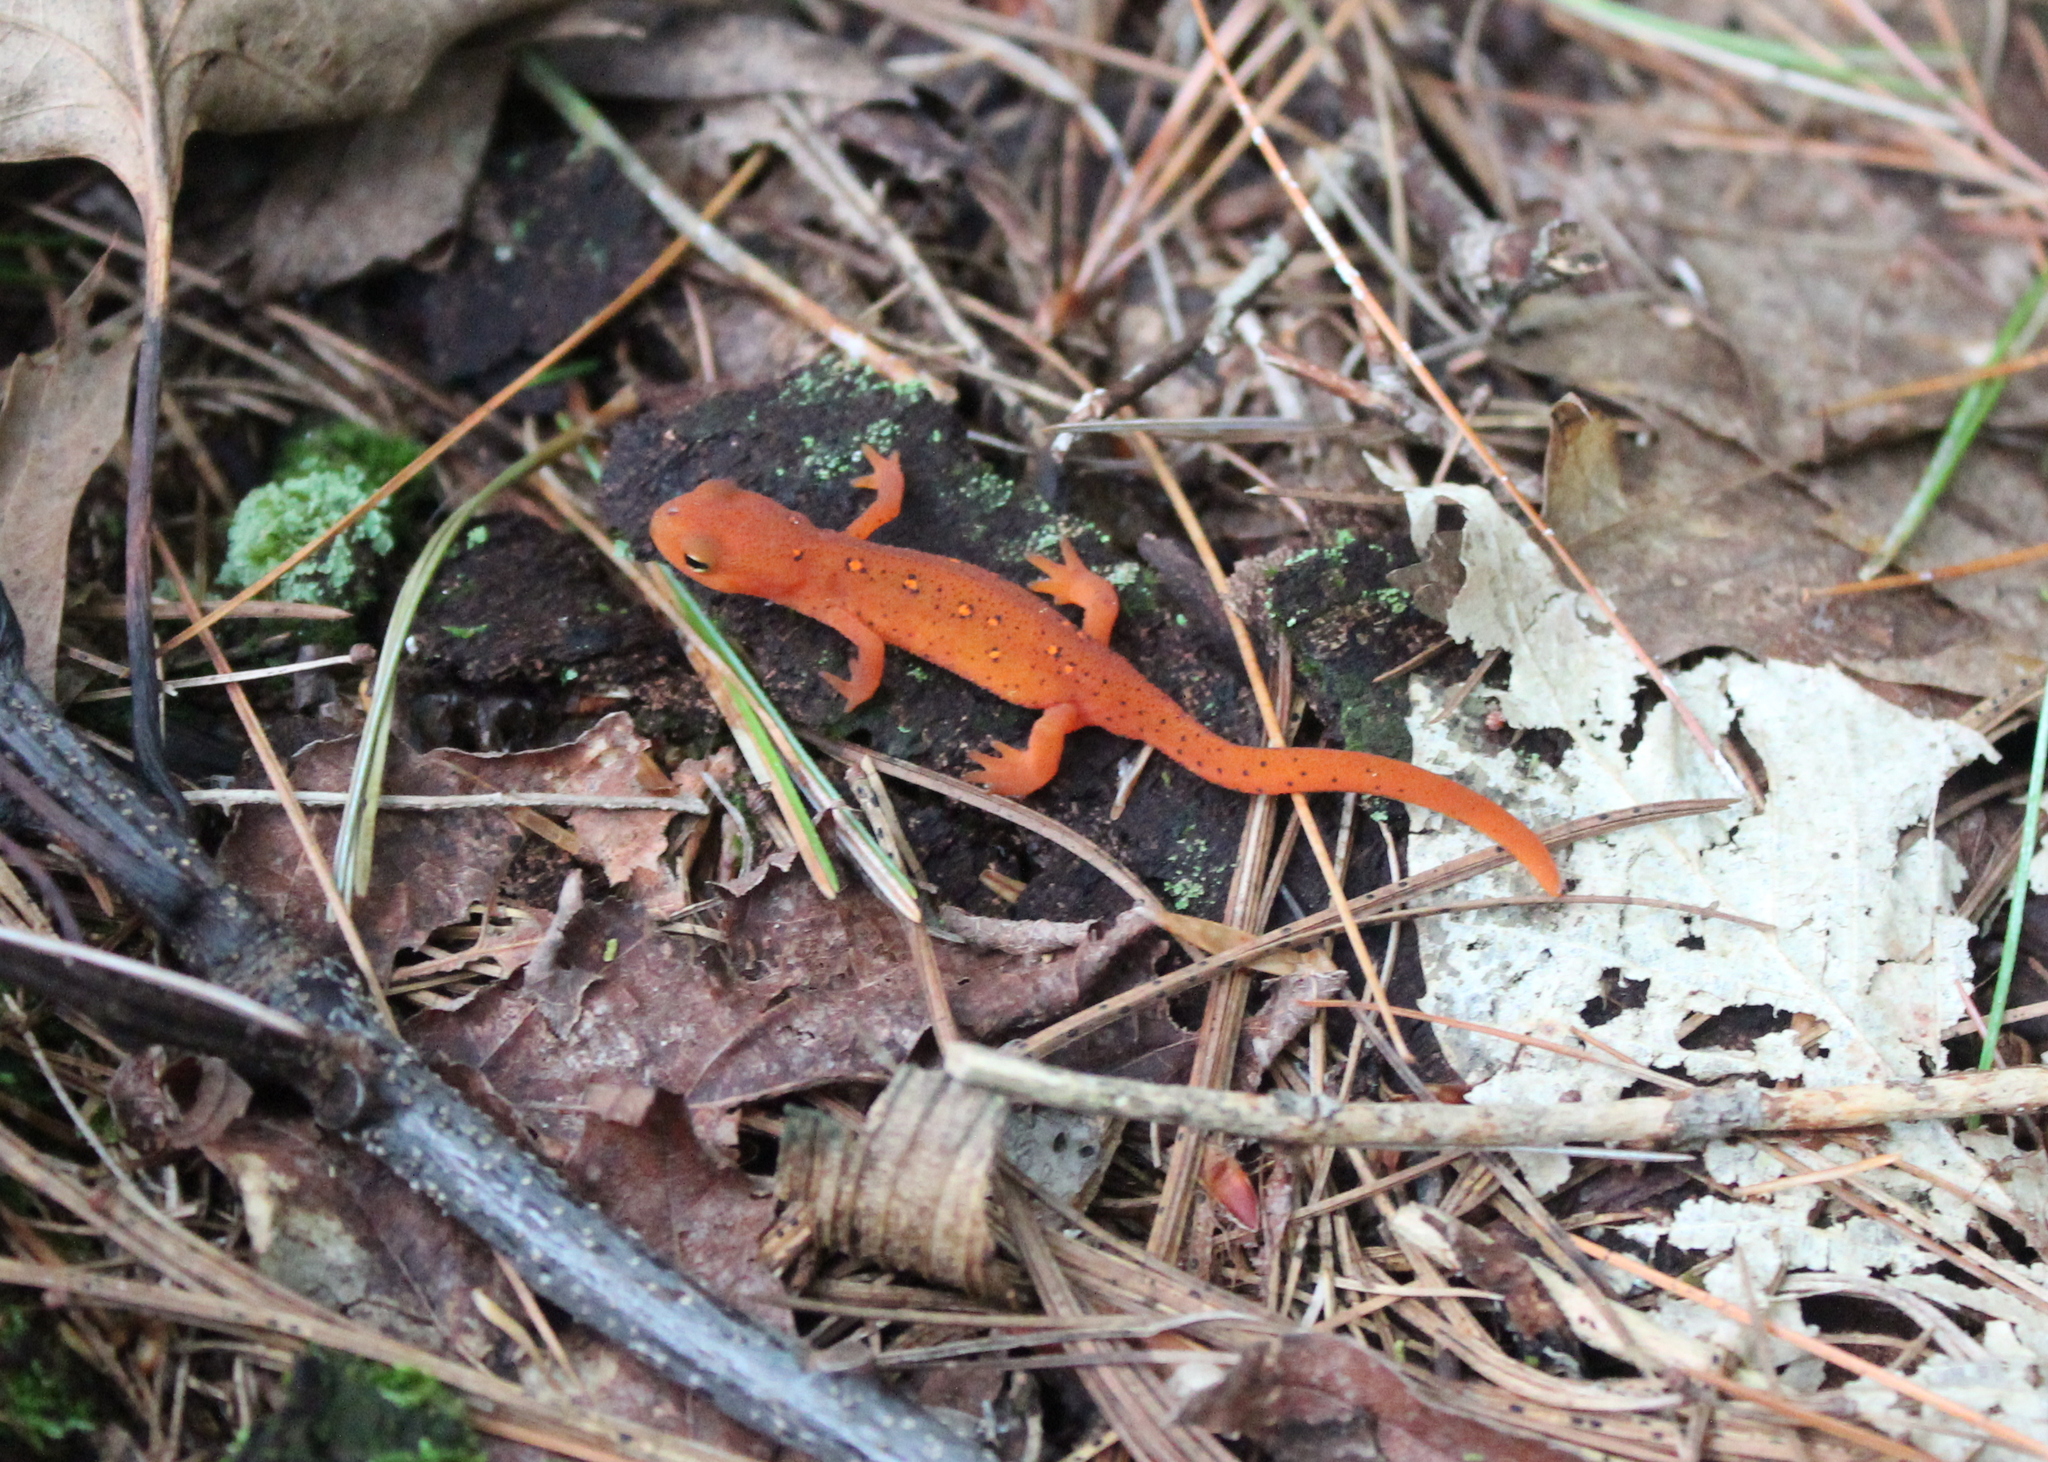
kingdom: Animalia
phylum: Chordata
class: Amphibia
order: Caudata
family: Salamandridae
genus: Notophthalmus
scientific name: Notophthalmus viridescens
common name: Eastern newt
